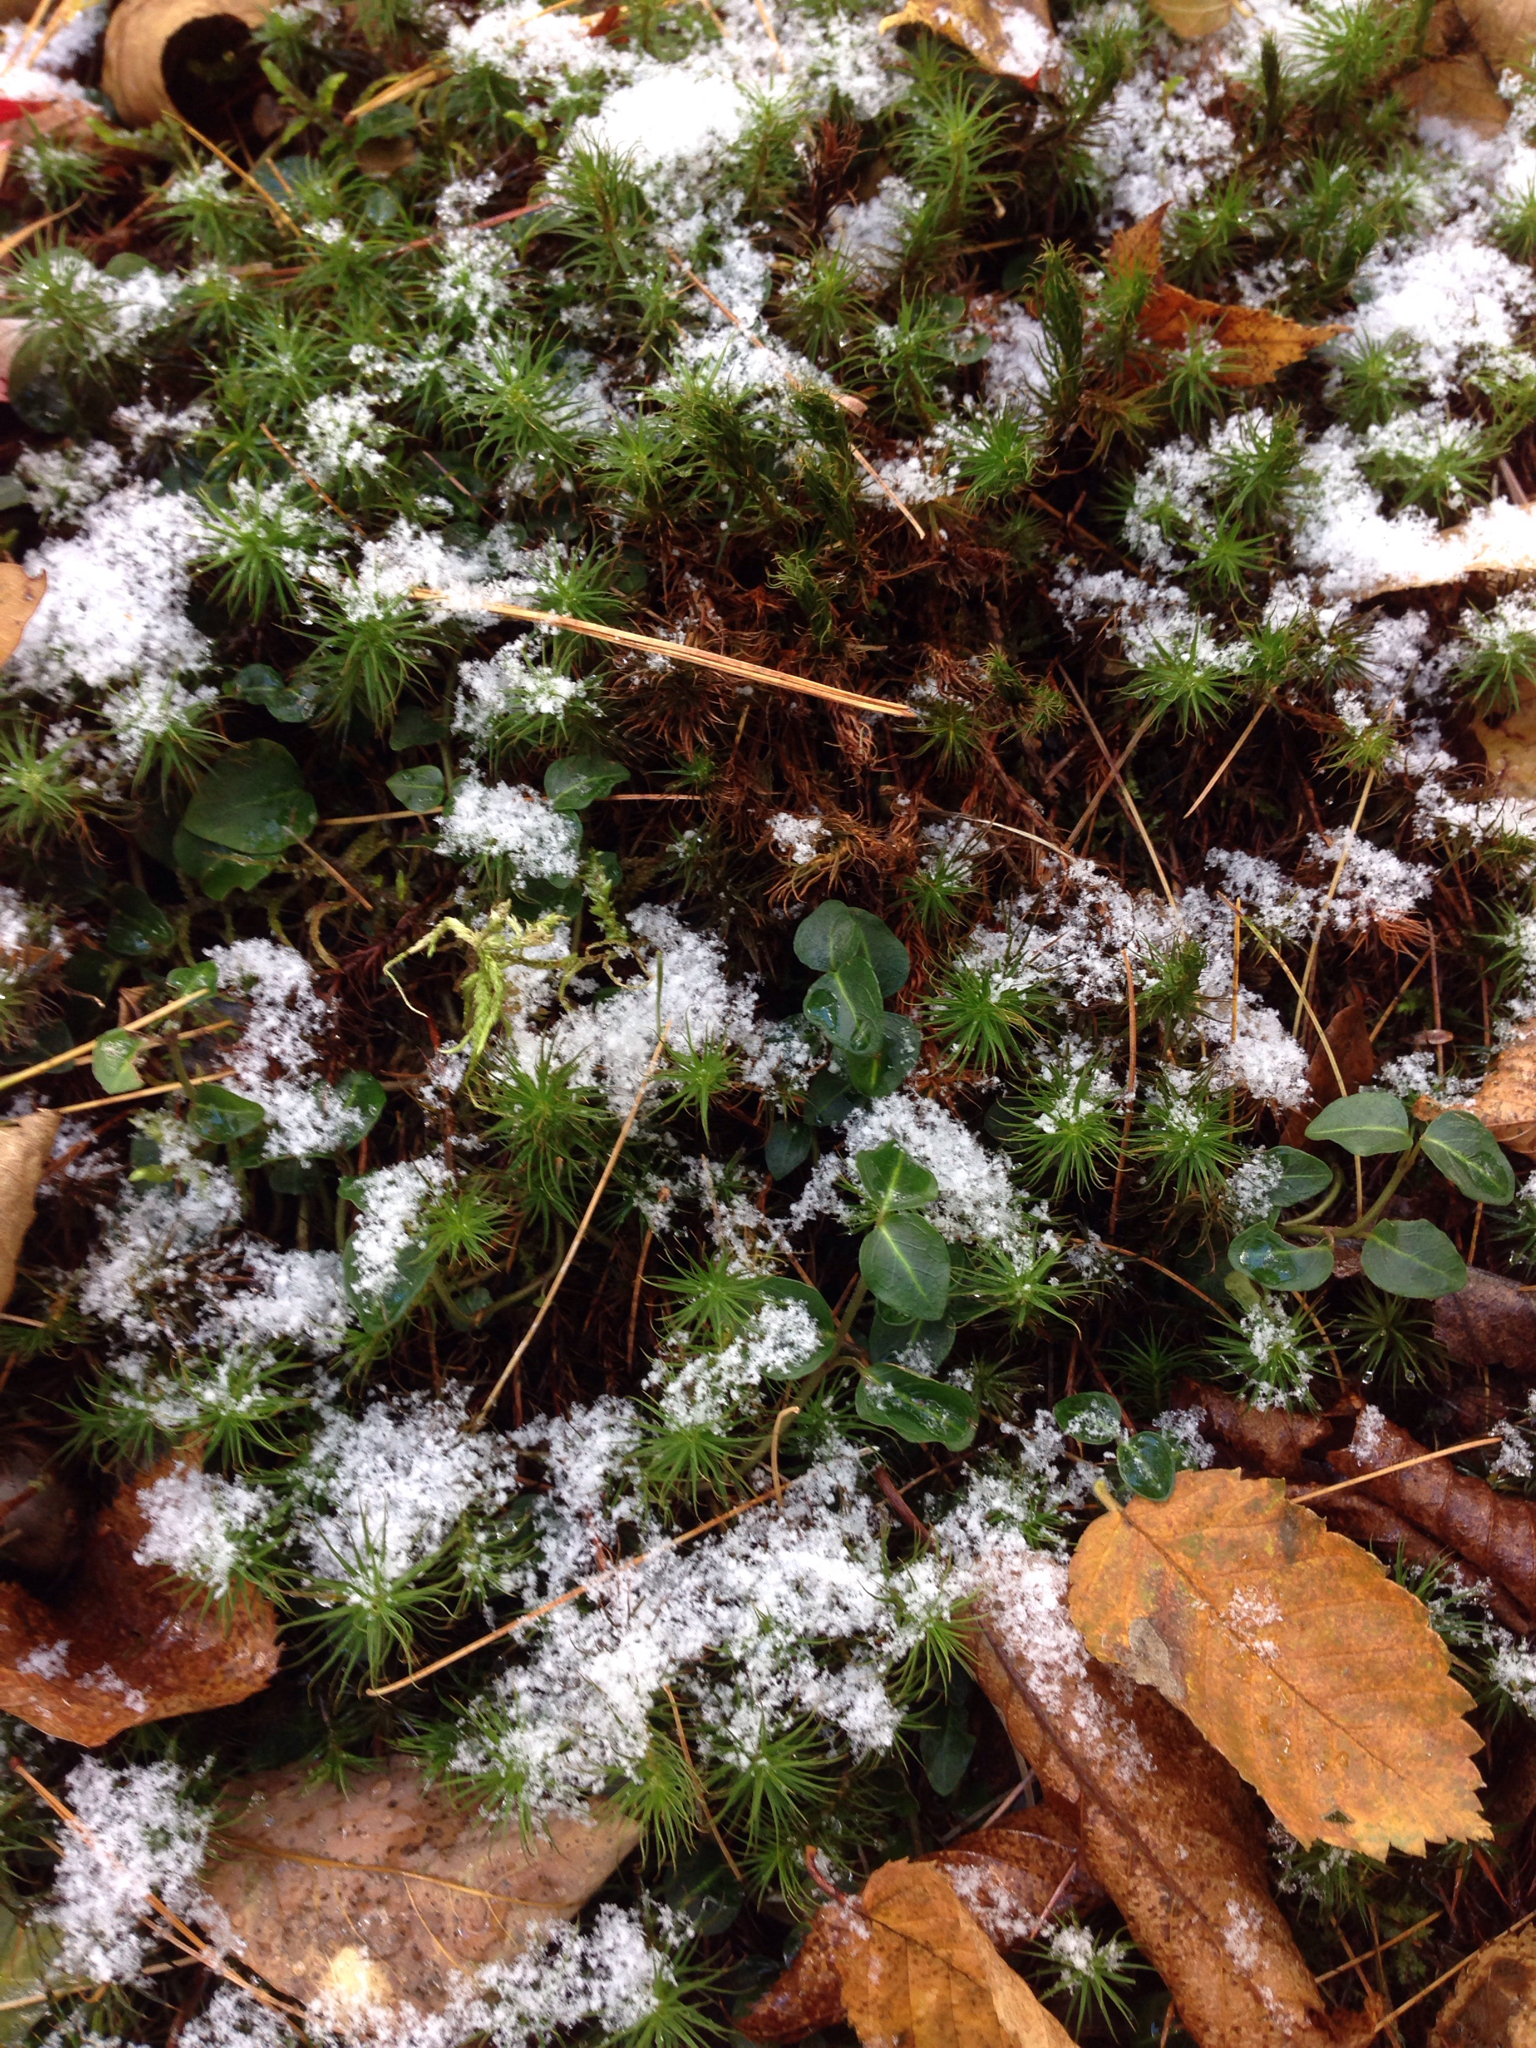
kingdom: Plantae
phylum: Tracheophyta
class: Magnoliopsida
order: Gentianales
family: Rubiaceae
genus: Mitchella
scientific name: Mitchella repens
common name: Partridge-berry
